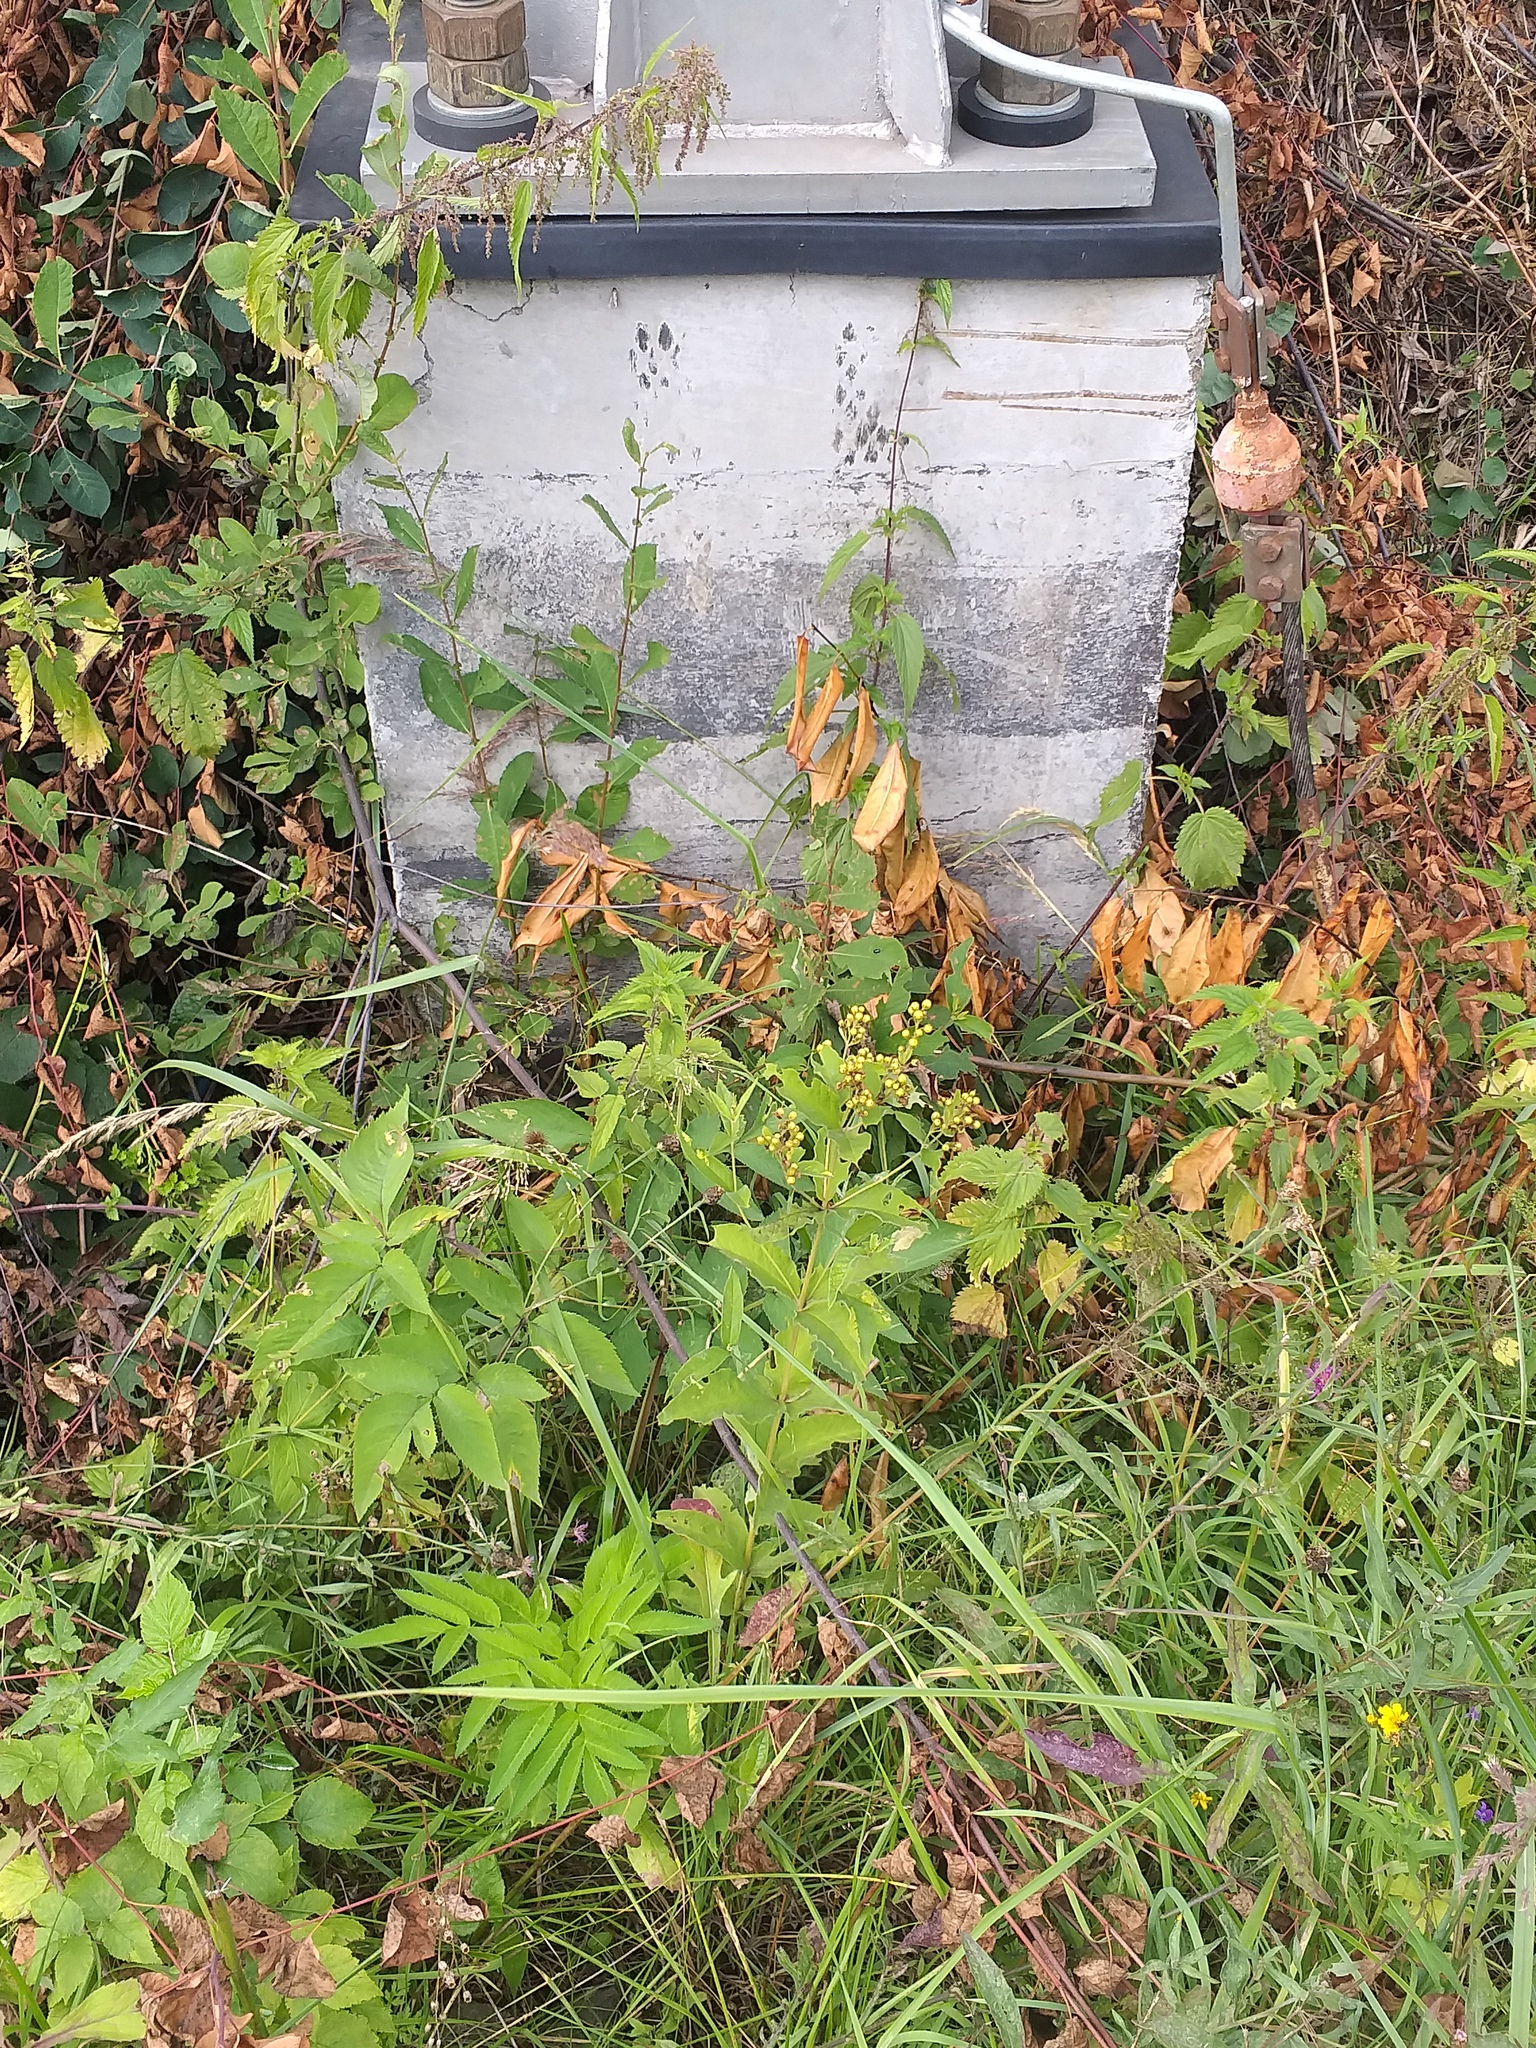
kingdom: Plantae
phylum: Tracheophyta
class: Magnoliopsida
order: Ericales
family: Primulaceae
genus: Lysimachia
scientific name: Lysimachia vulgaris
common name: Yellow loosestrife
